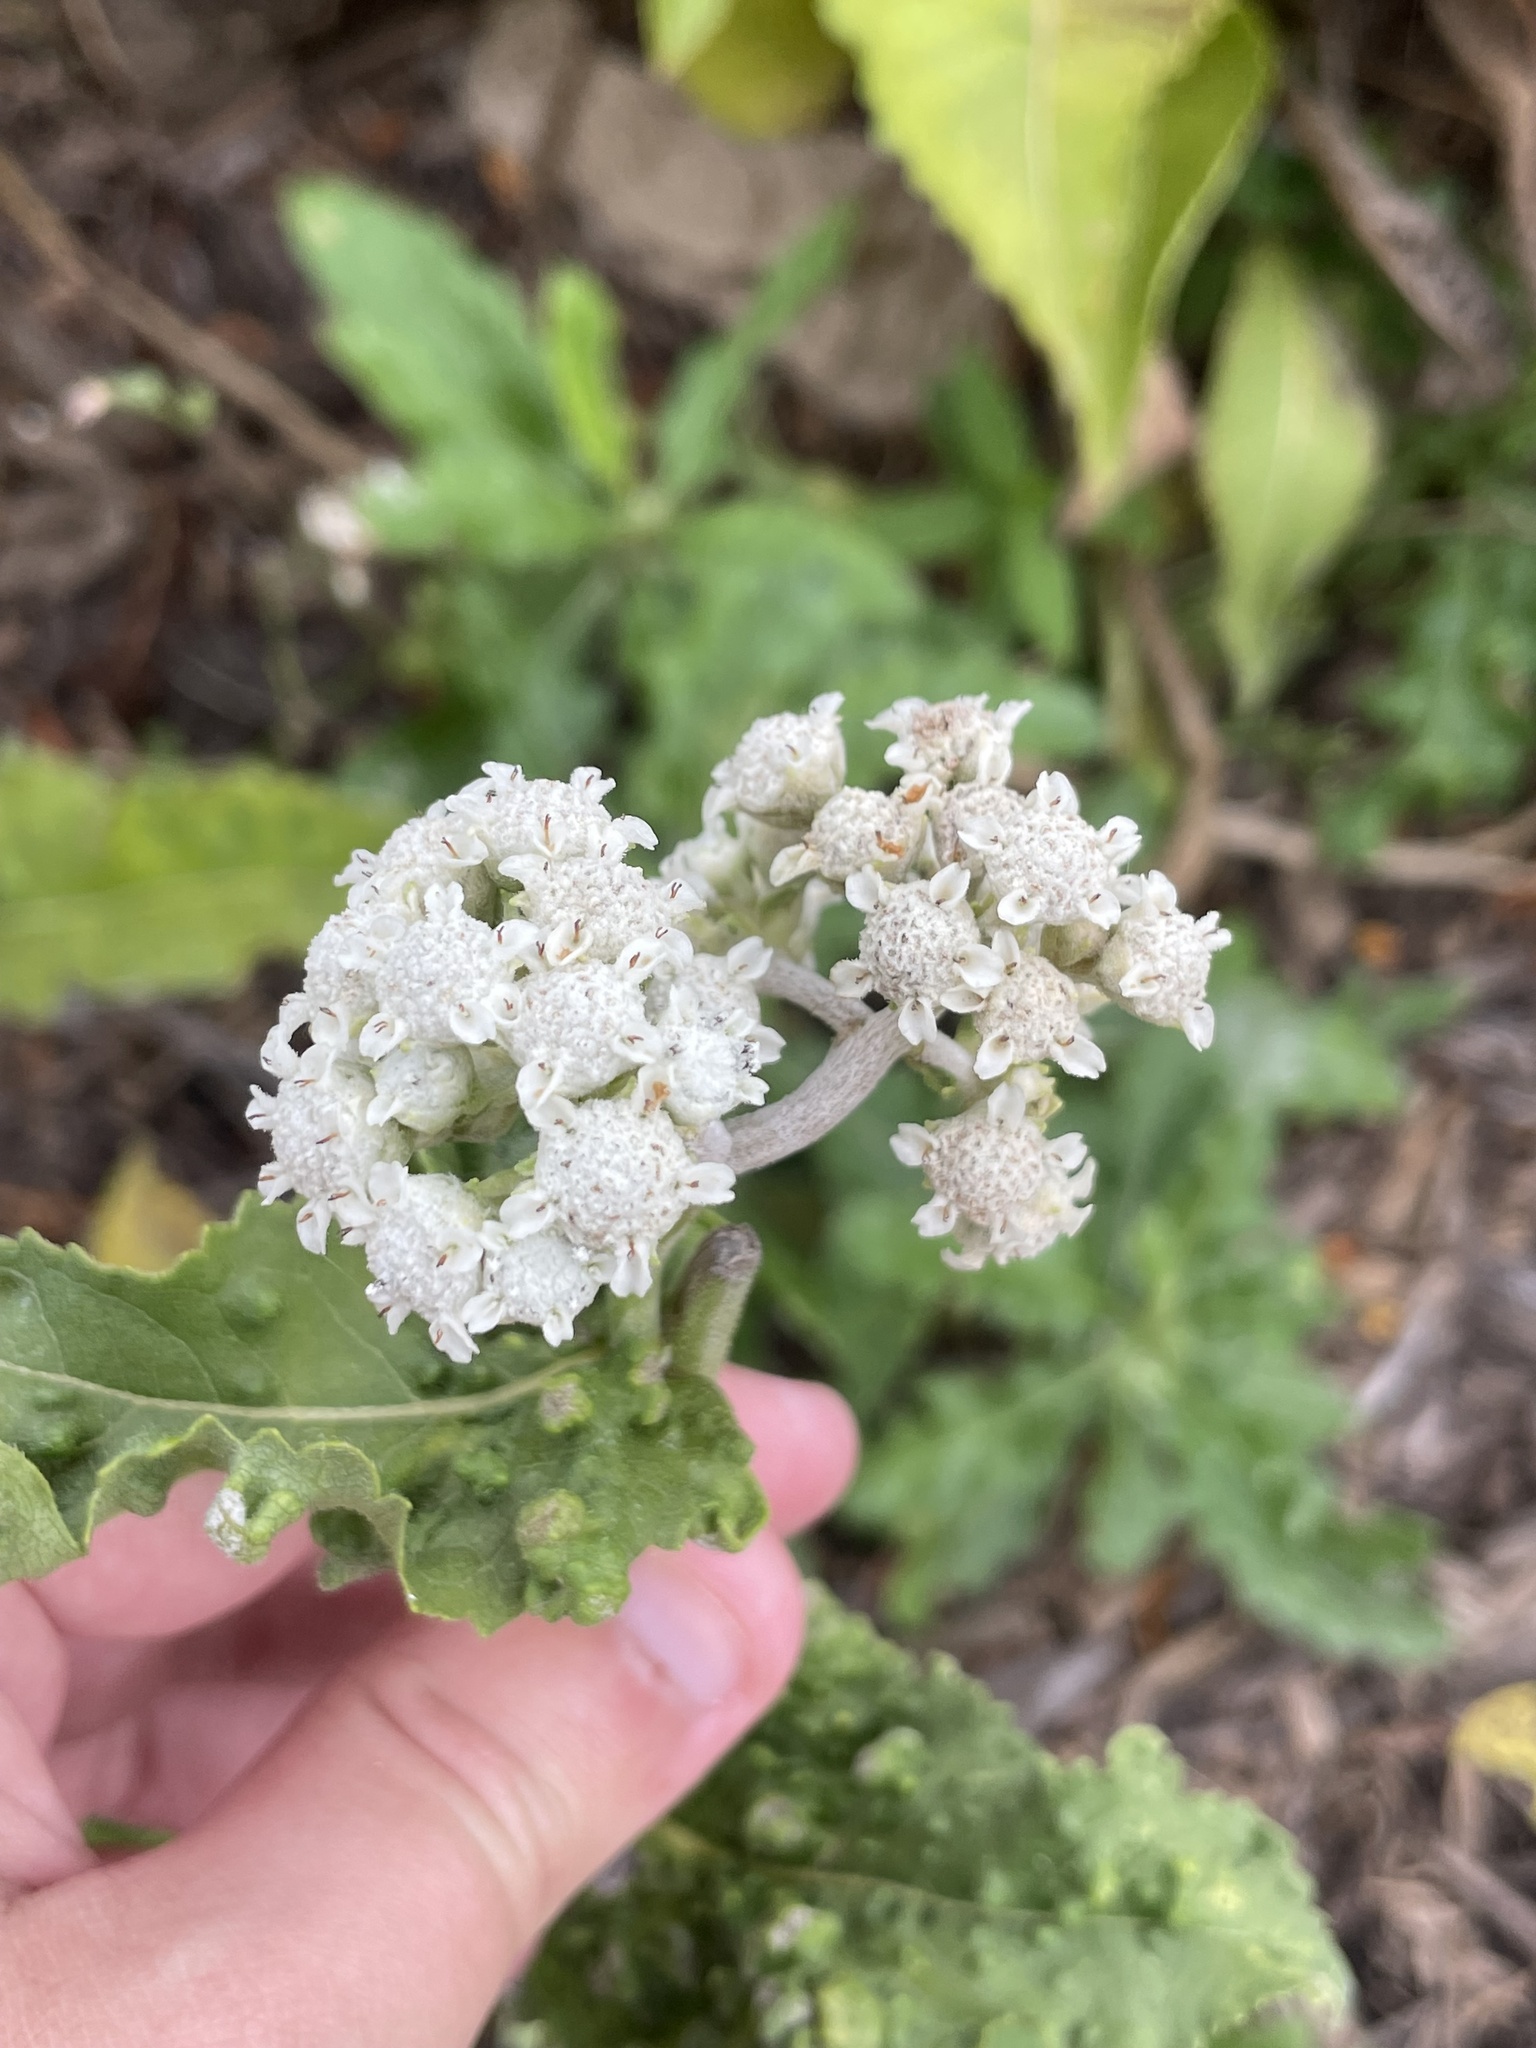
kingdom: Plantae
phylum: Tracheophyta
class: Magnoliopsida
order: Asterales
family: Asteraceae
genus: Parthenium
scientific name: Parthenium integrifolium
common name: American feverfew
